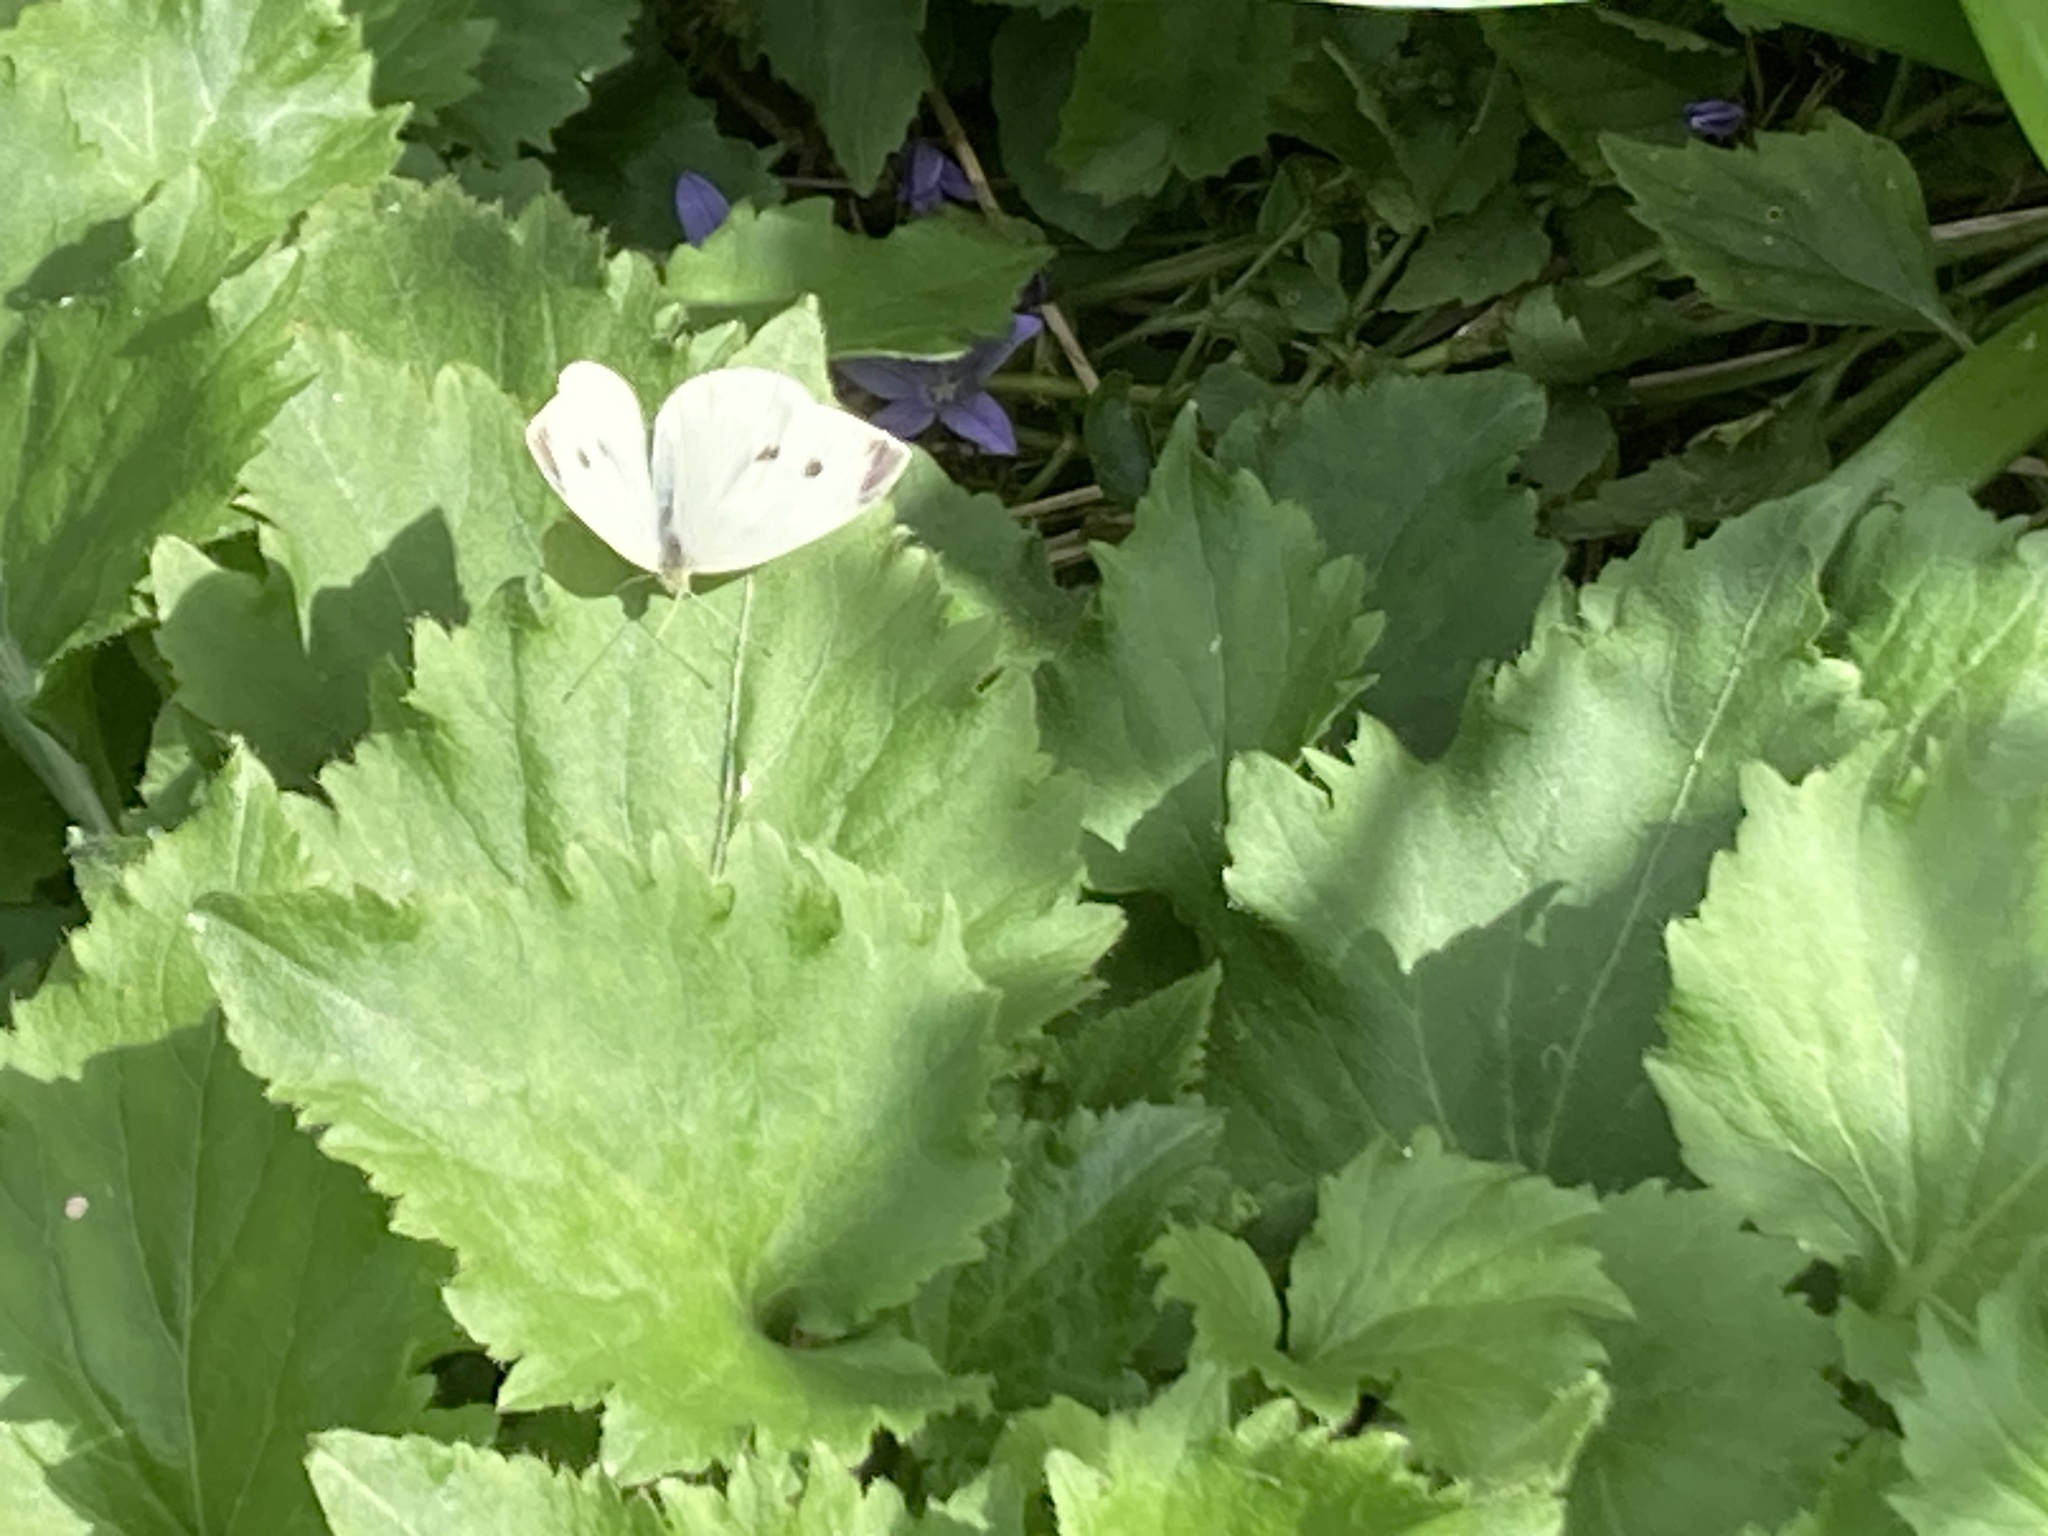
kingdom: Animalia
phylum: Arthropoda
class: Insecta
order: Lepidoptera
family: Pieridae
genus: Pieris
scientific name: Pieris rapae
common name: Small white
